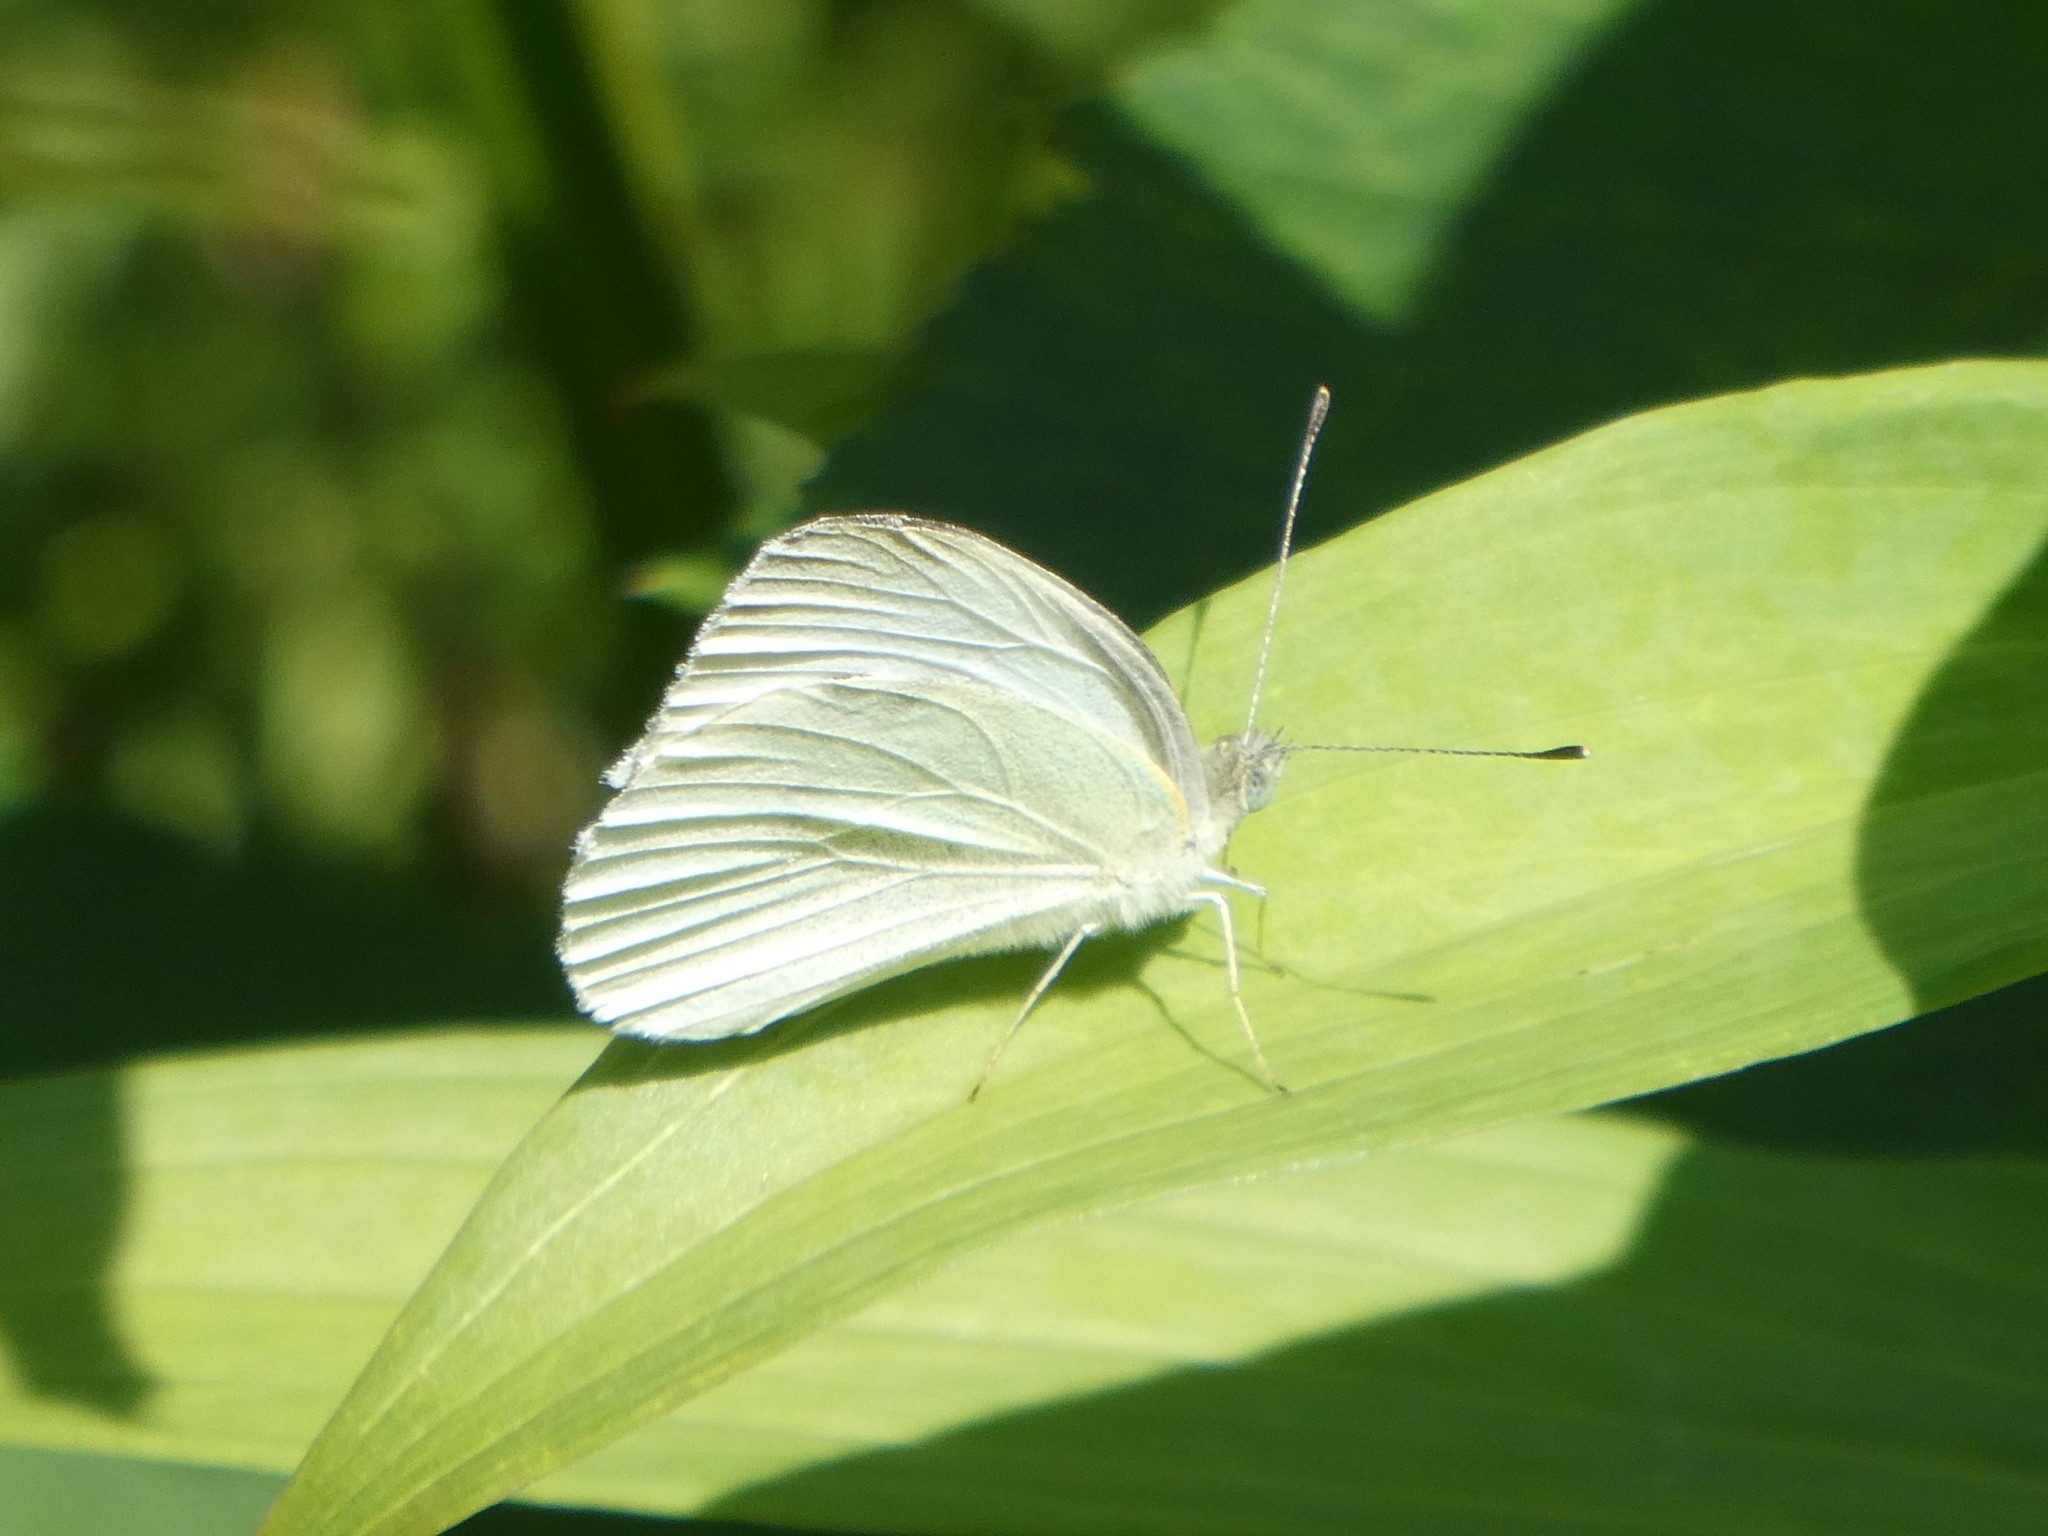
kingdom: Animalia
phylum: Arthropoda
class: Insecta
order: Lepidoptera
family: Pieridae
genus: Pieris
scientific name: Pieris oleracea
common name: Mustard white
